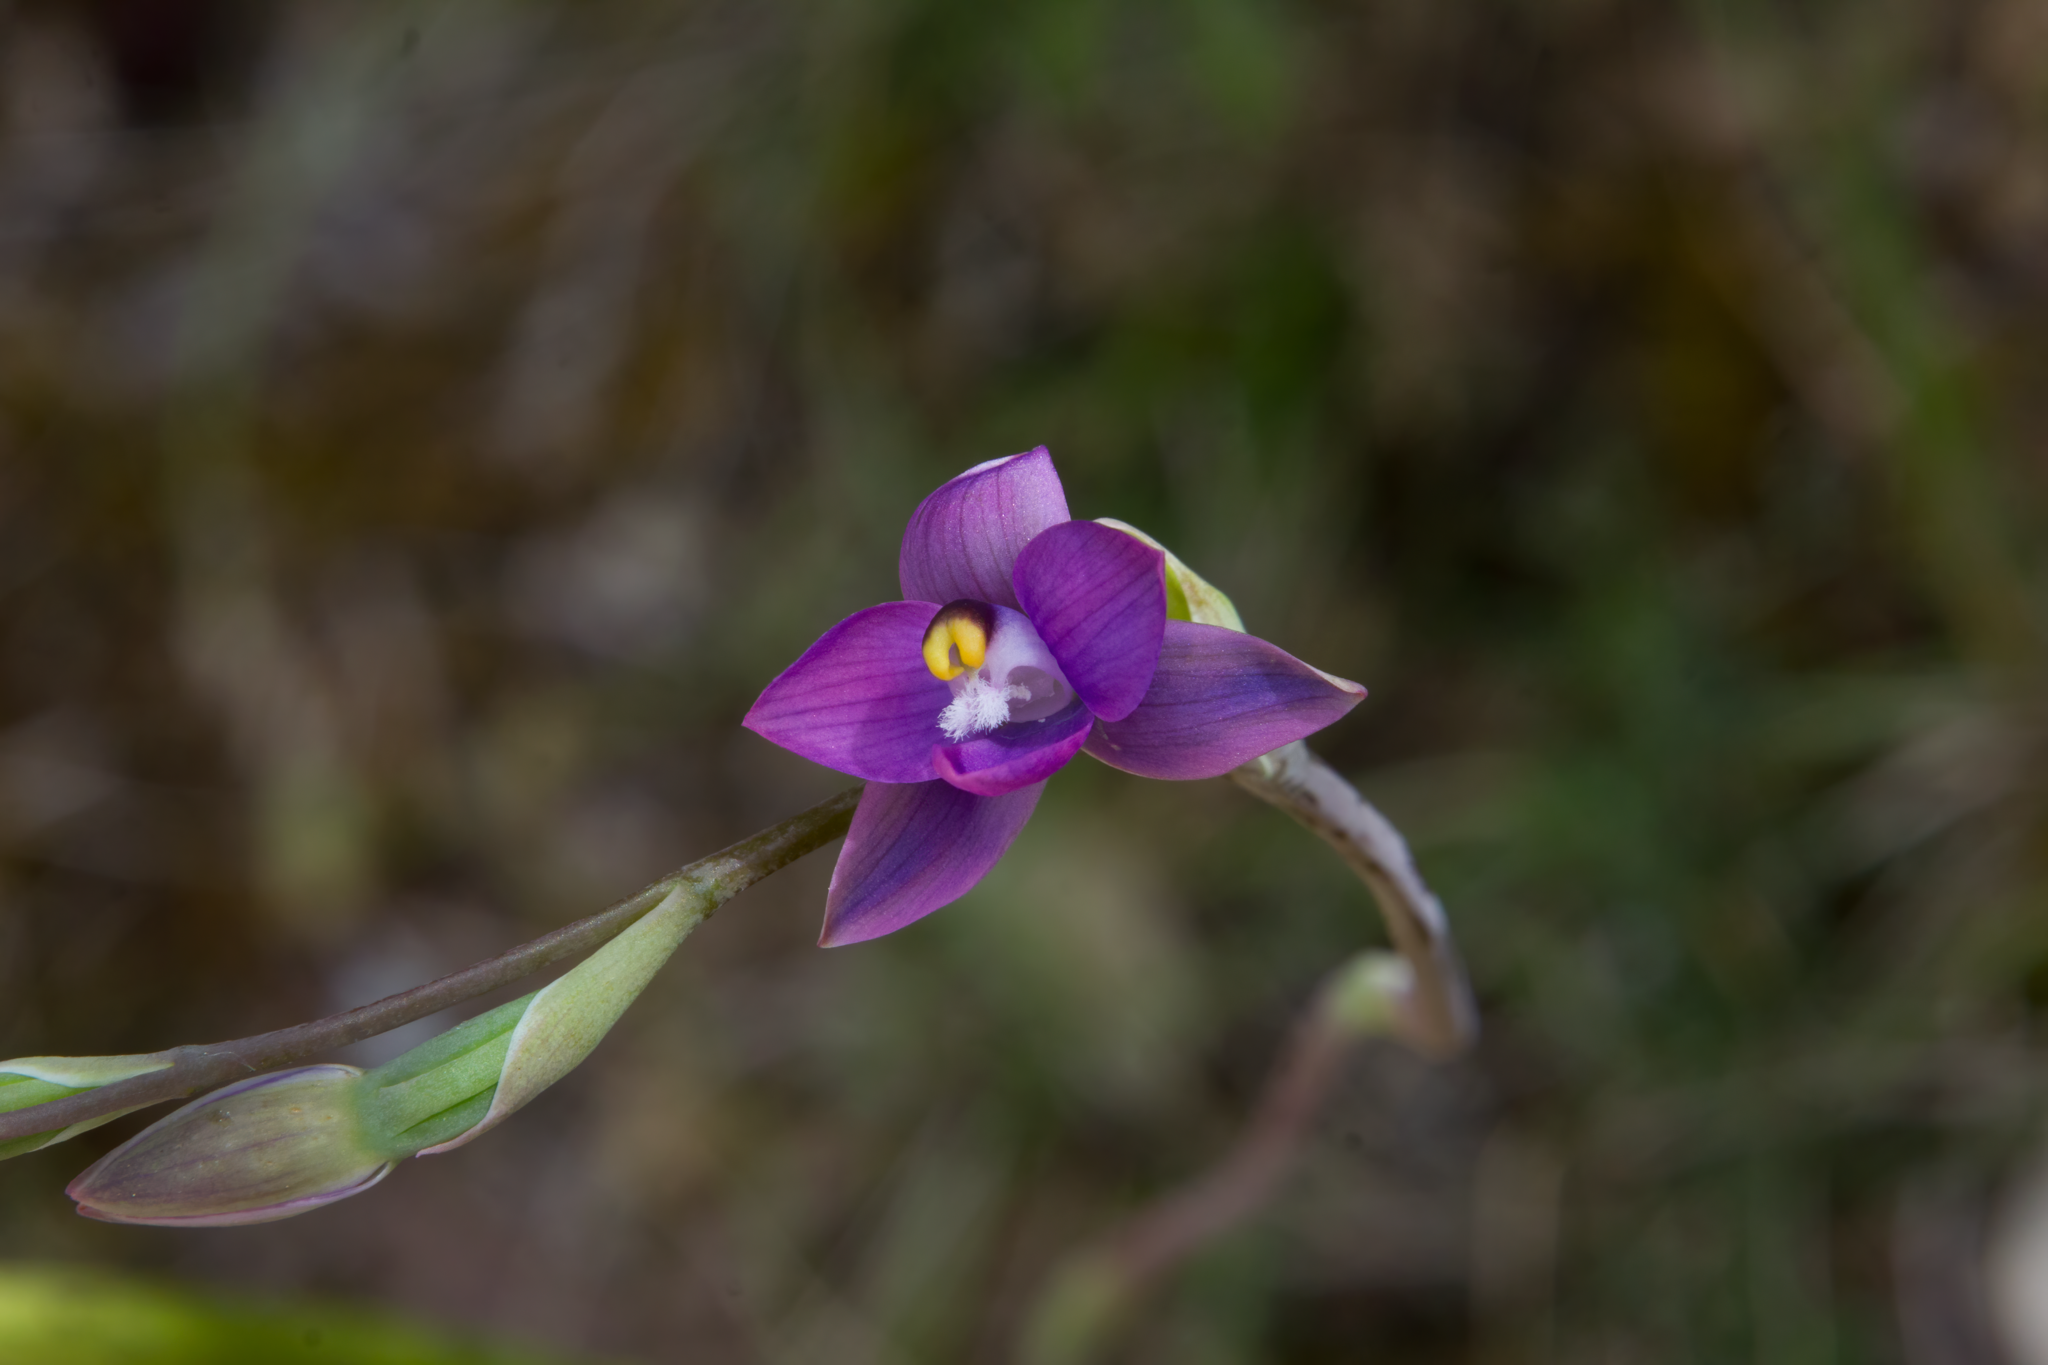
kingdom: Plantae
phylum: Tracheophyta
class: Liliopsida
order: Asparagales
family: Orchidaceae
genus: Thelymitra
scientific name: Thelymitra pauciflora
